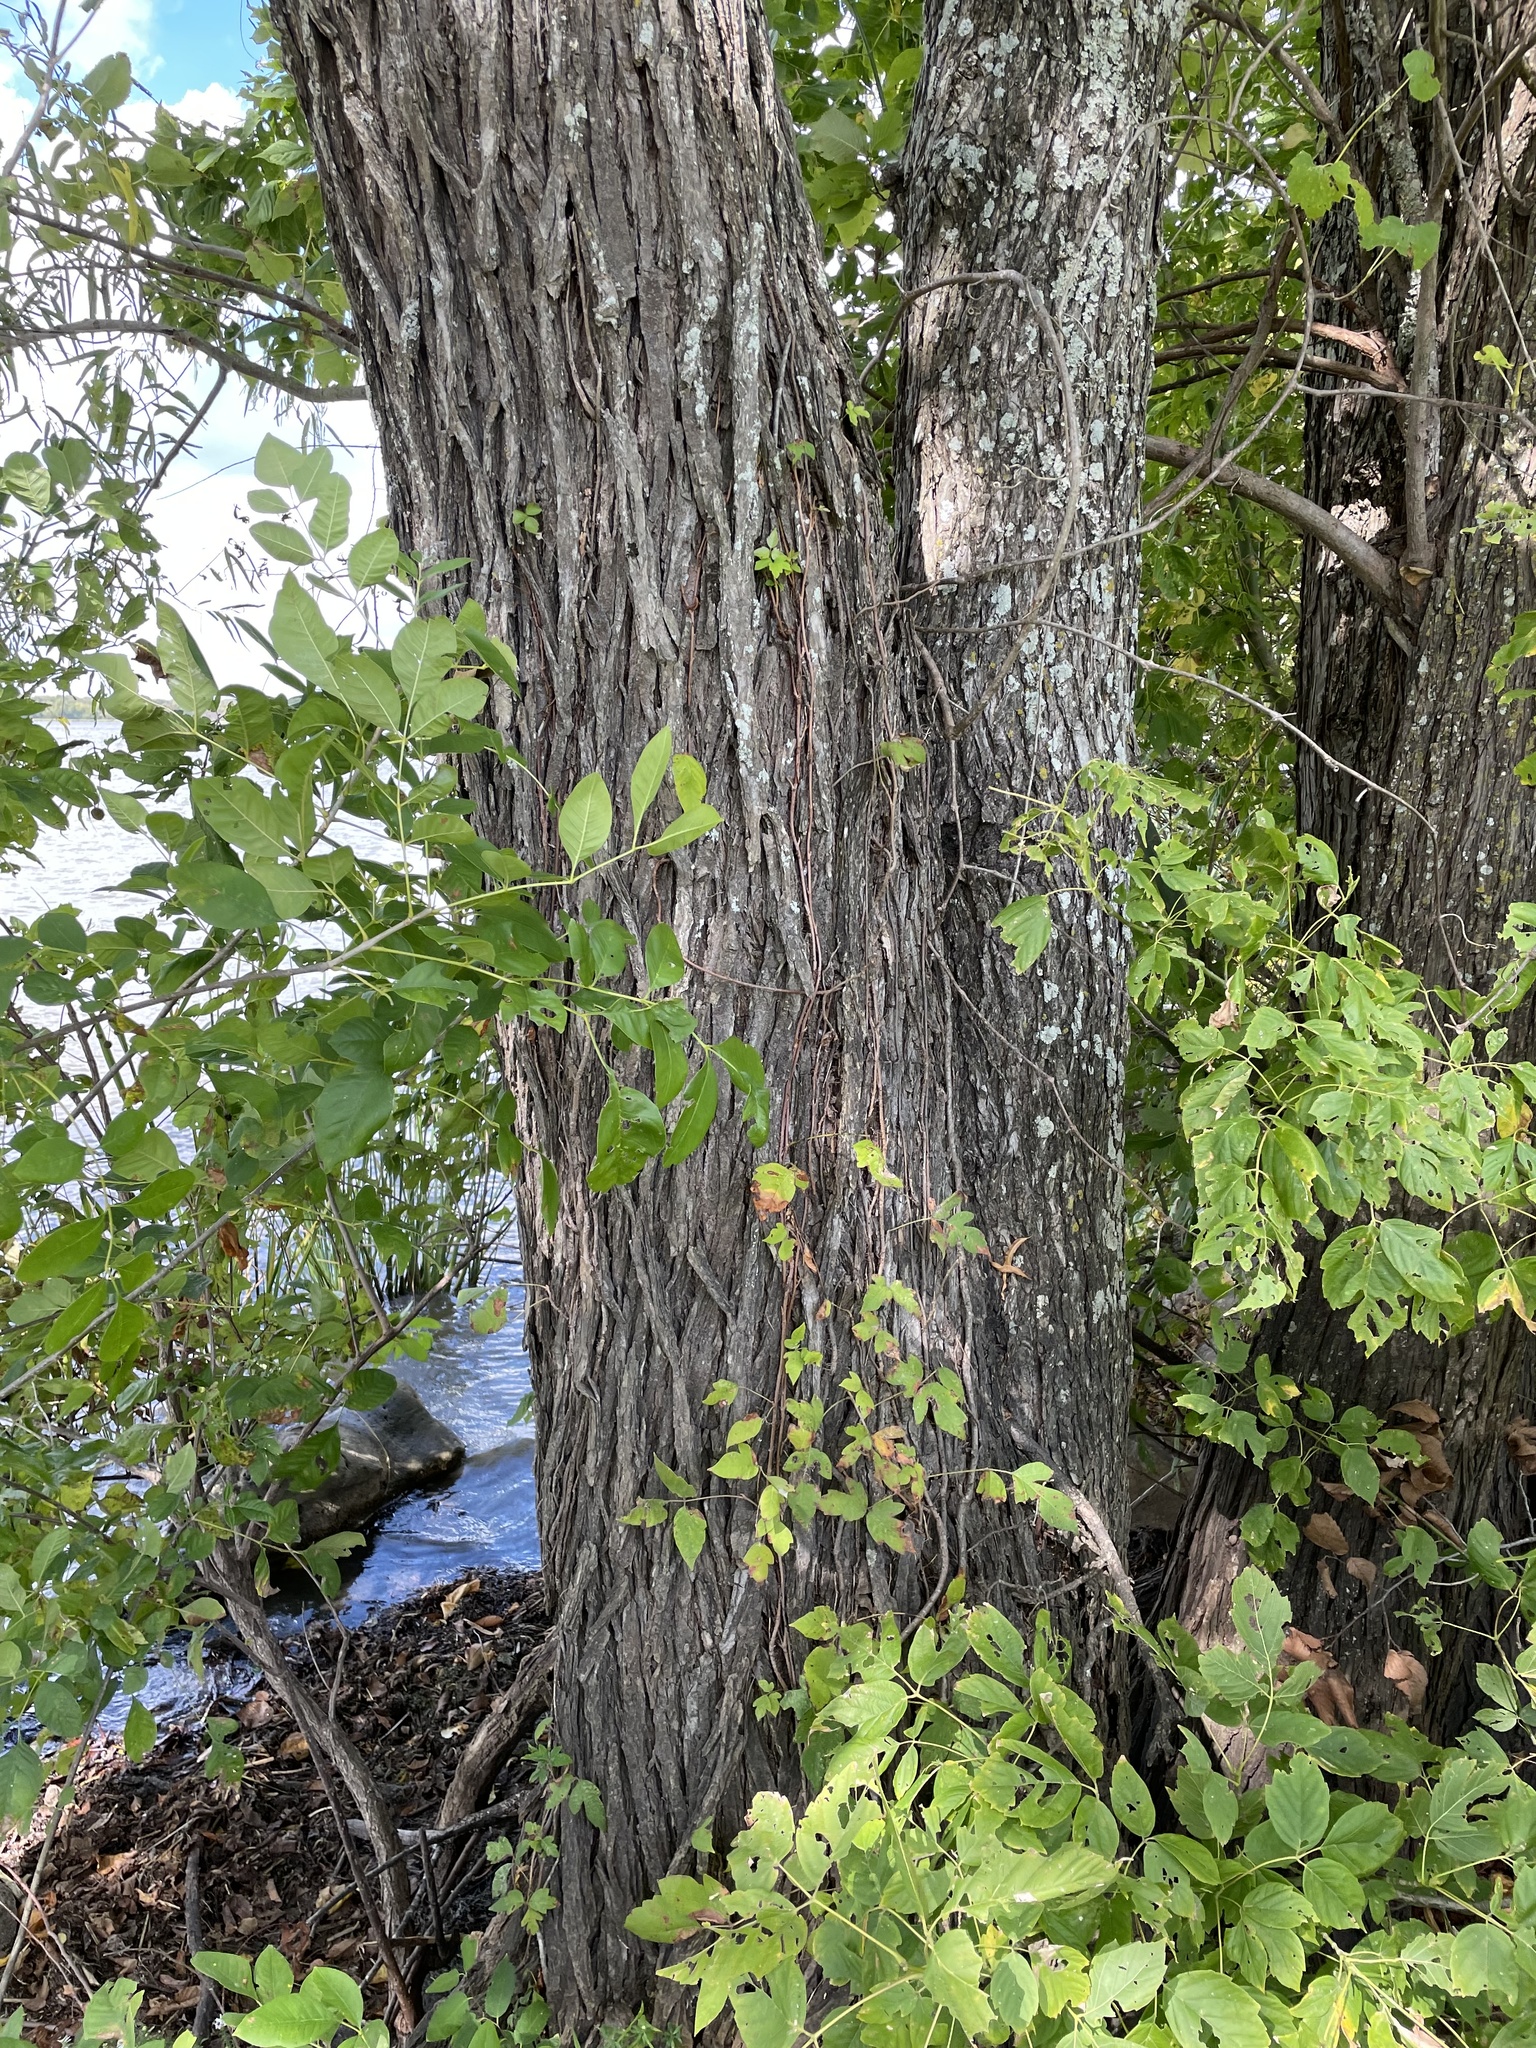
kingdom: Plantae
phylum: Tracheophyta
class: Magnoliopsida
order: Rosales
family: Ulmaceae
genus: Ulmus
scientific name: Ulmus americana
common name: American elm
